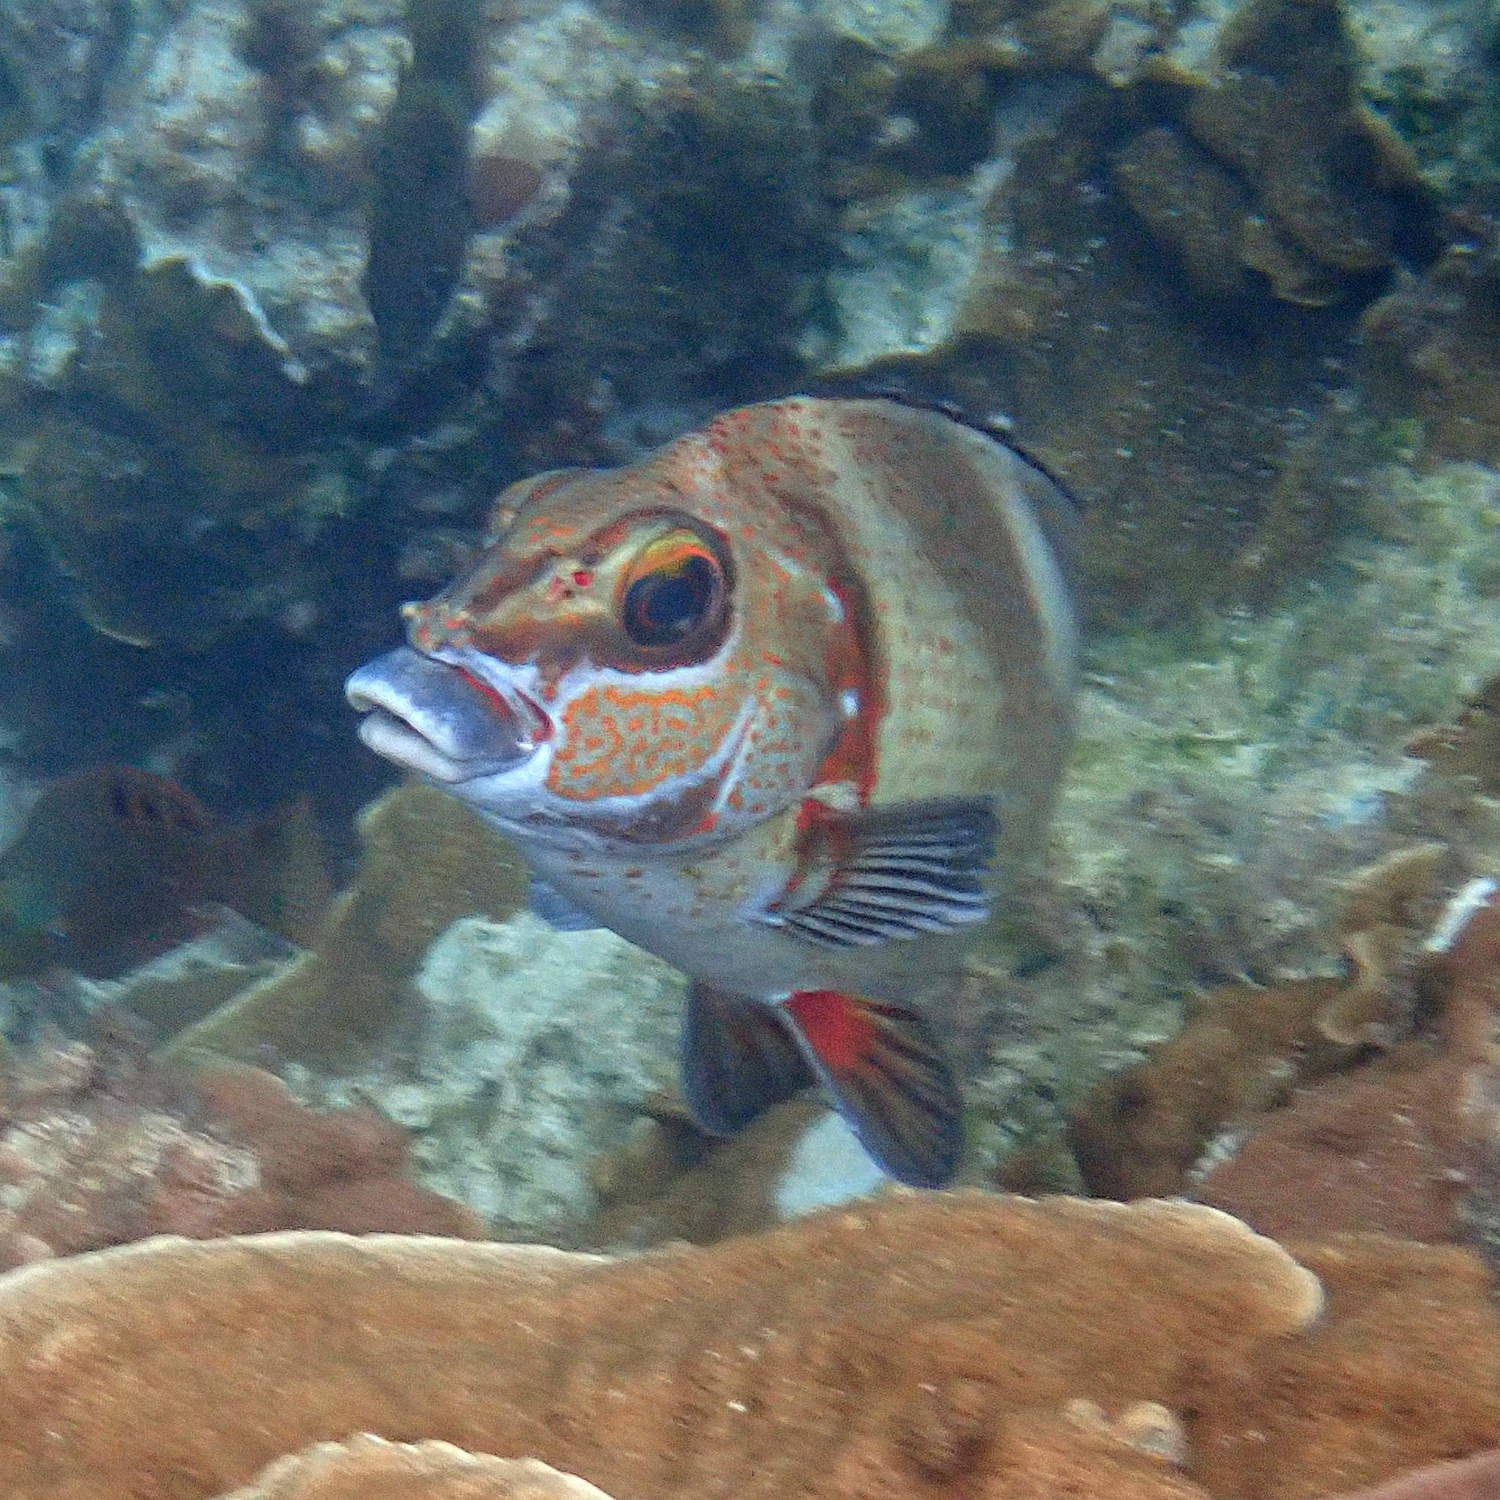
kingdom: Animalia
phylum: Chordata
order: Perciformes
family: Latridae
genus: Morwong
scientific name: Morwong ephippium
